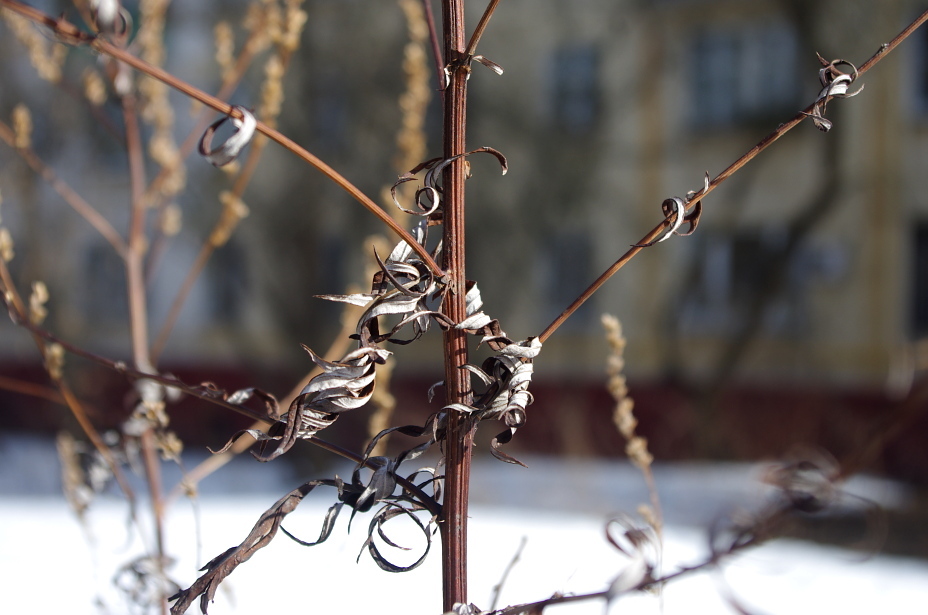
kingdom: Plantae
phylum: Tracheophyta
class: Magnoliopsida
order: Asterales
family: Asteraceae
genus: Artemisia
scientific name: Artemisia vulgaris
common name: Mugwort
